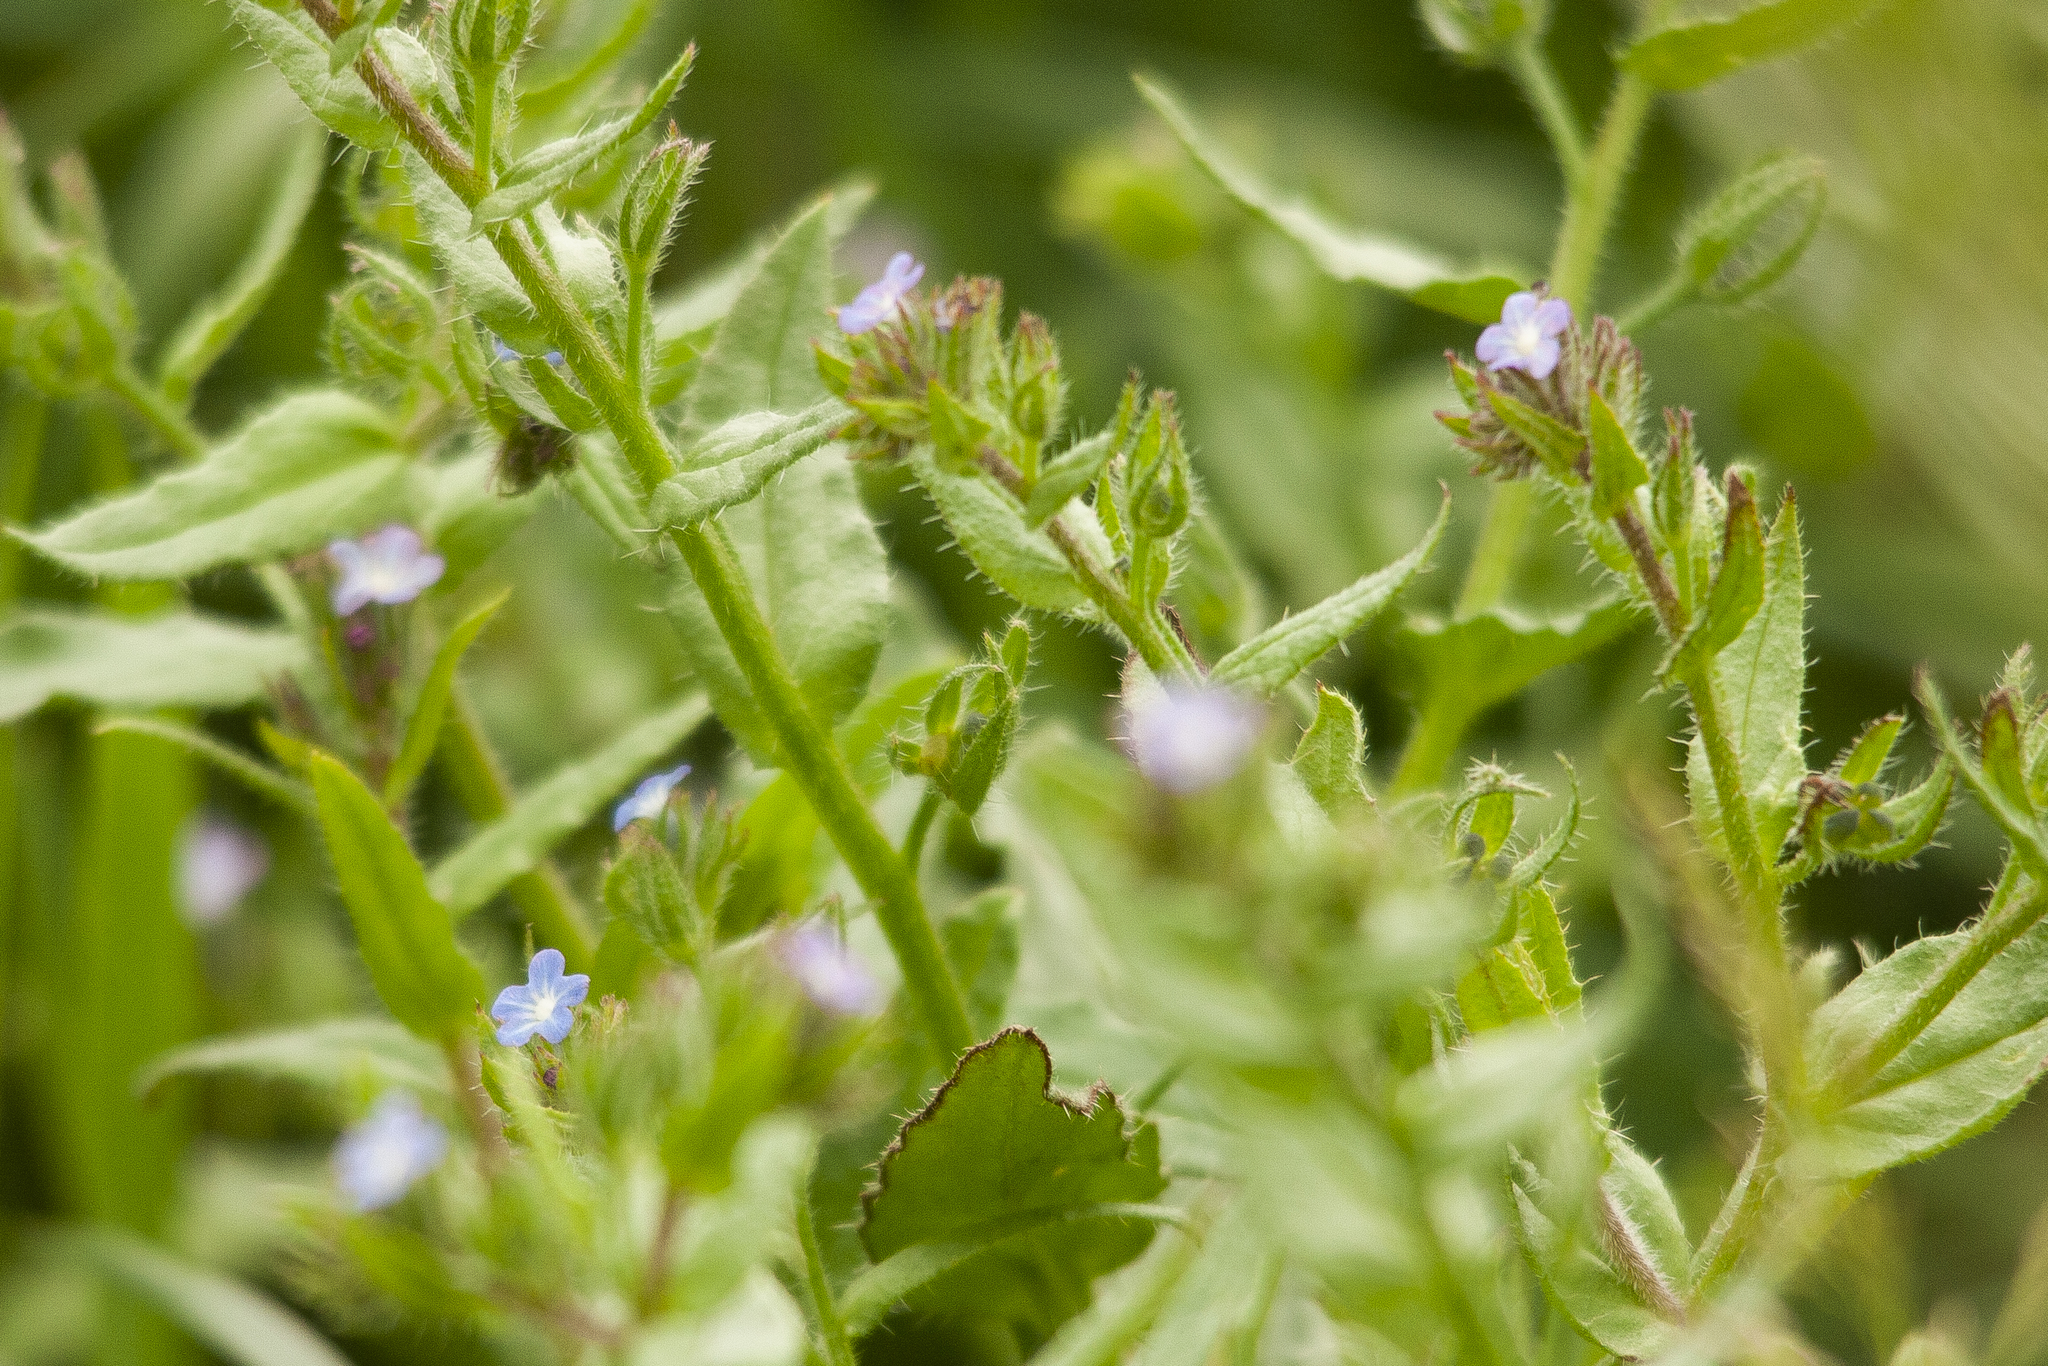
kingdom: Plantae
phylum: Tracheophyta
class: Magnoliopsida
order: Boraginales
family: Boraginaceae
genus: Lycopsis
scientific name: Lycopsis arvensis
